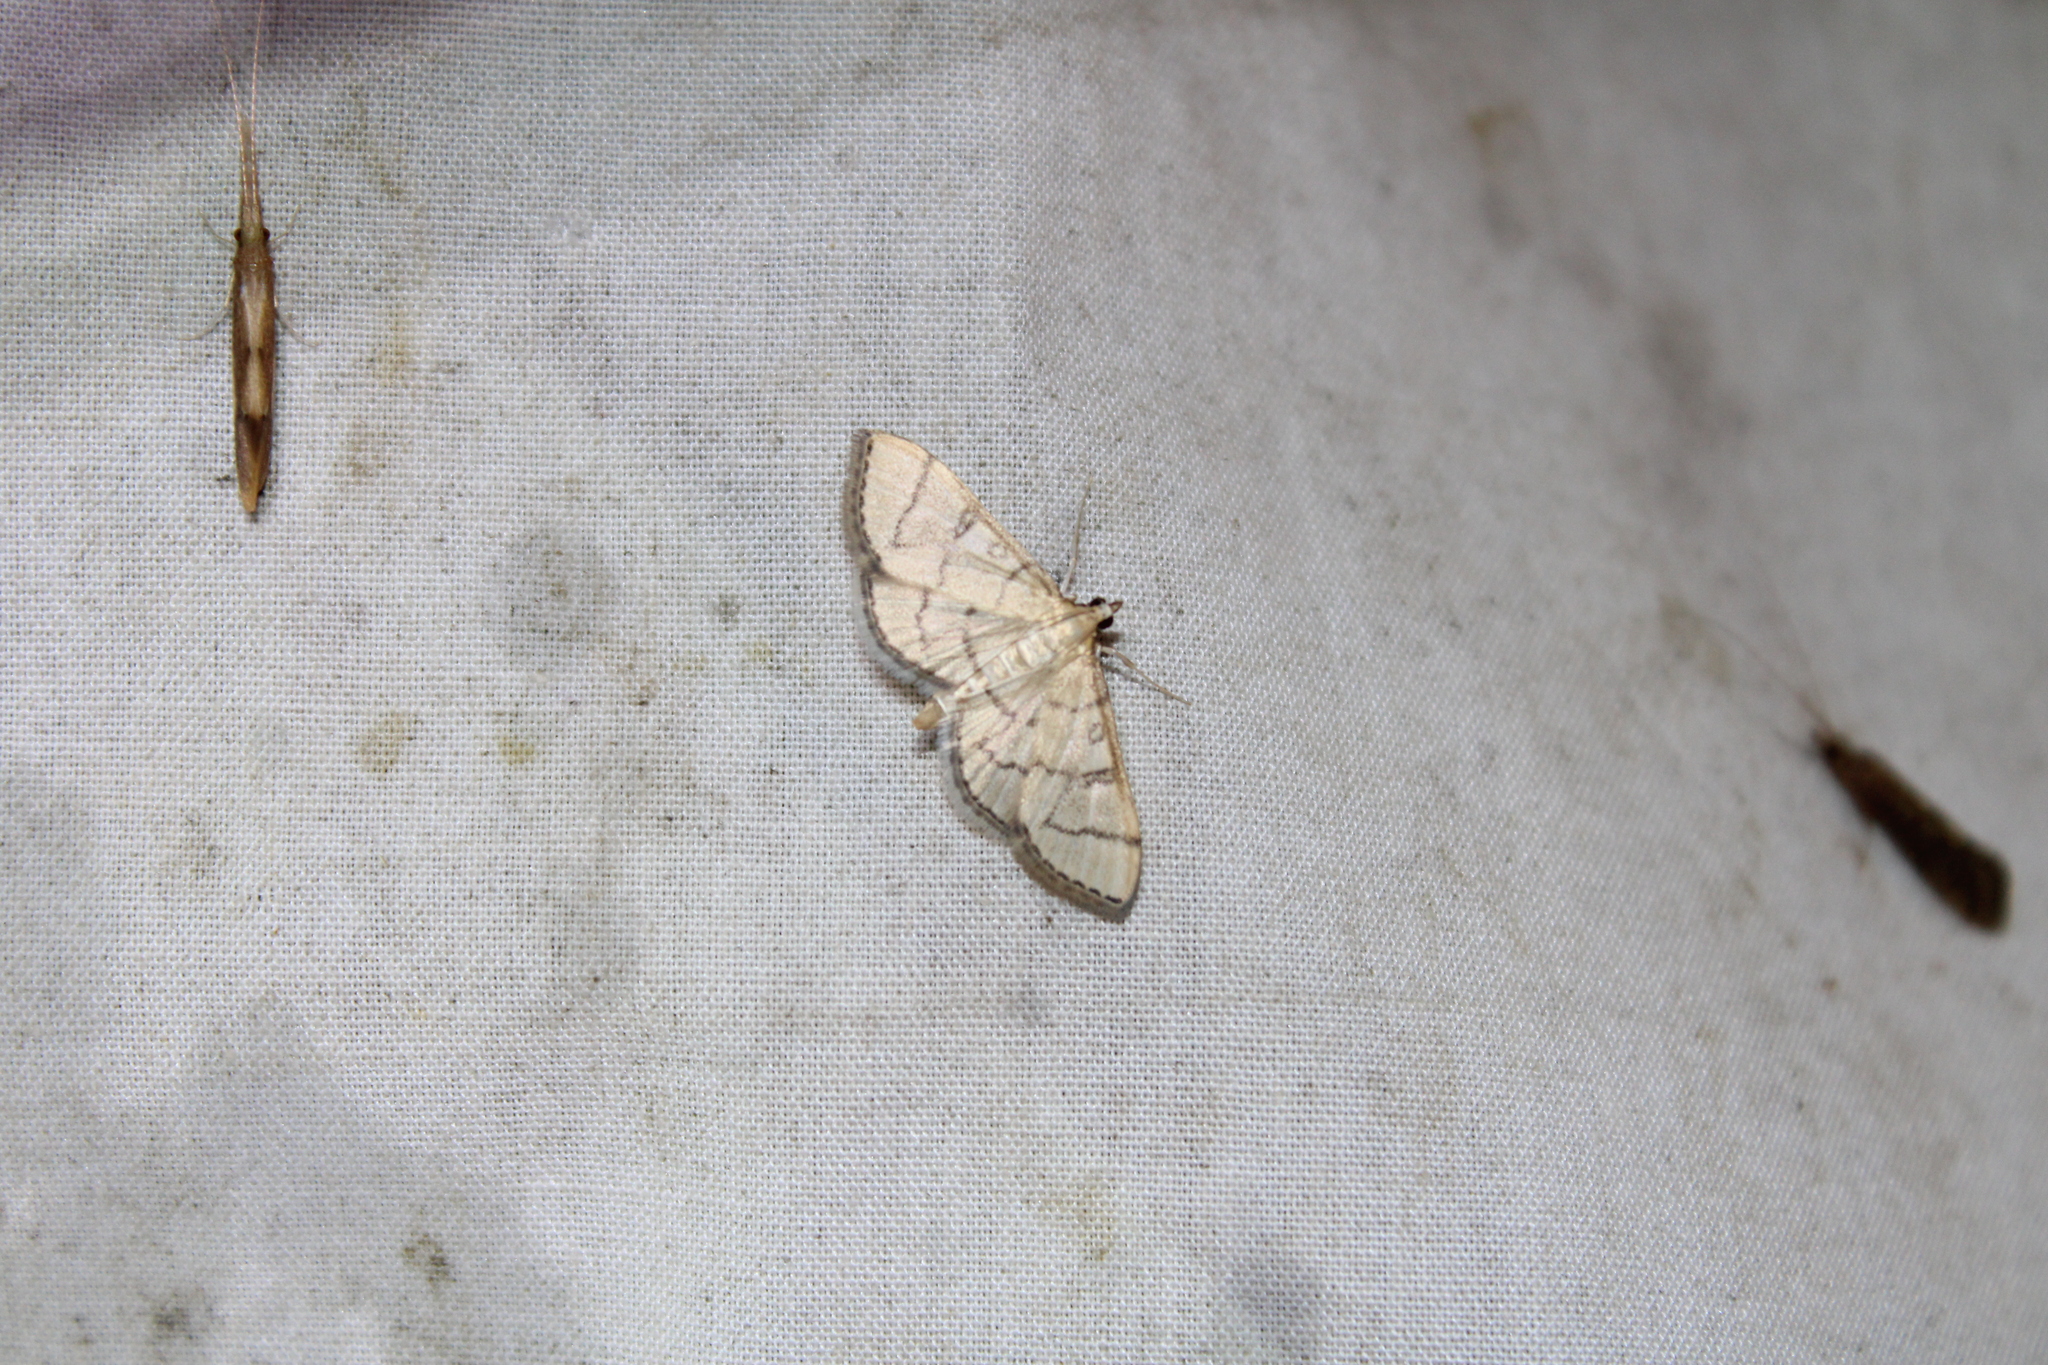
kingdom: Animalia
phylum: Arthropoda
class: Insecta
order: Lepidoptera
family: Crambidae
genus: Lamprosema
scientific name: Lamprosema Blepharomastix ranalis
